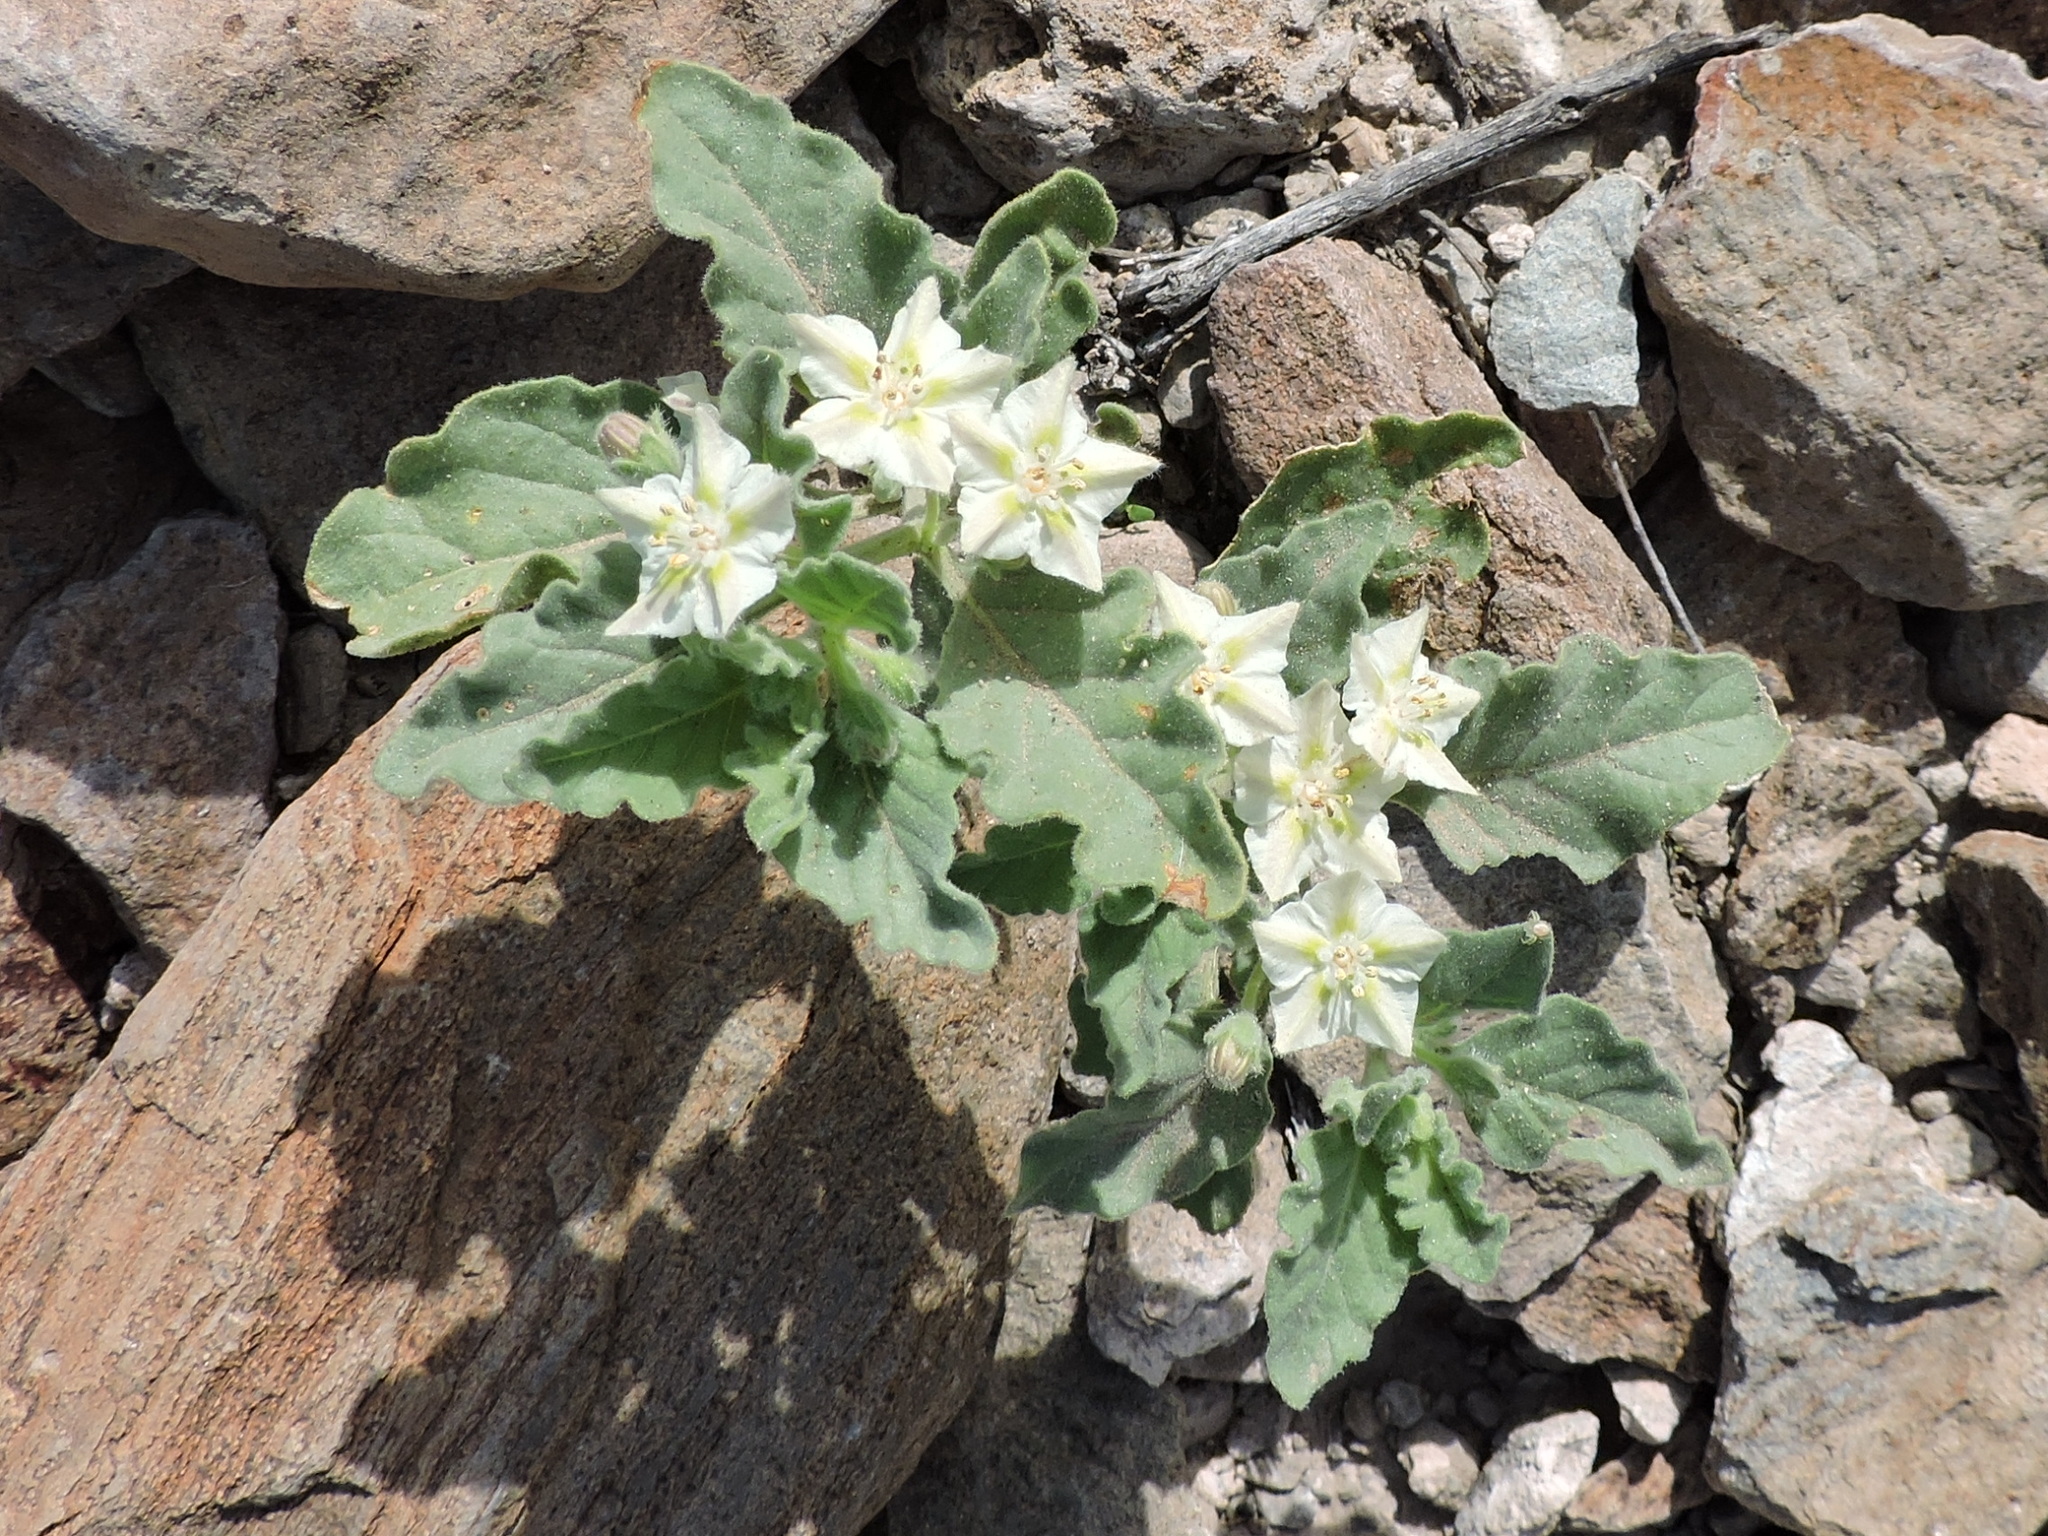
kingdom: Plantae
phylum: Tracheophyta
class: Magnoliopsida
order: Solanales
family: Solanaceae
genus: Chamaesaracha
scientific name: Chamaesaracha villosa
